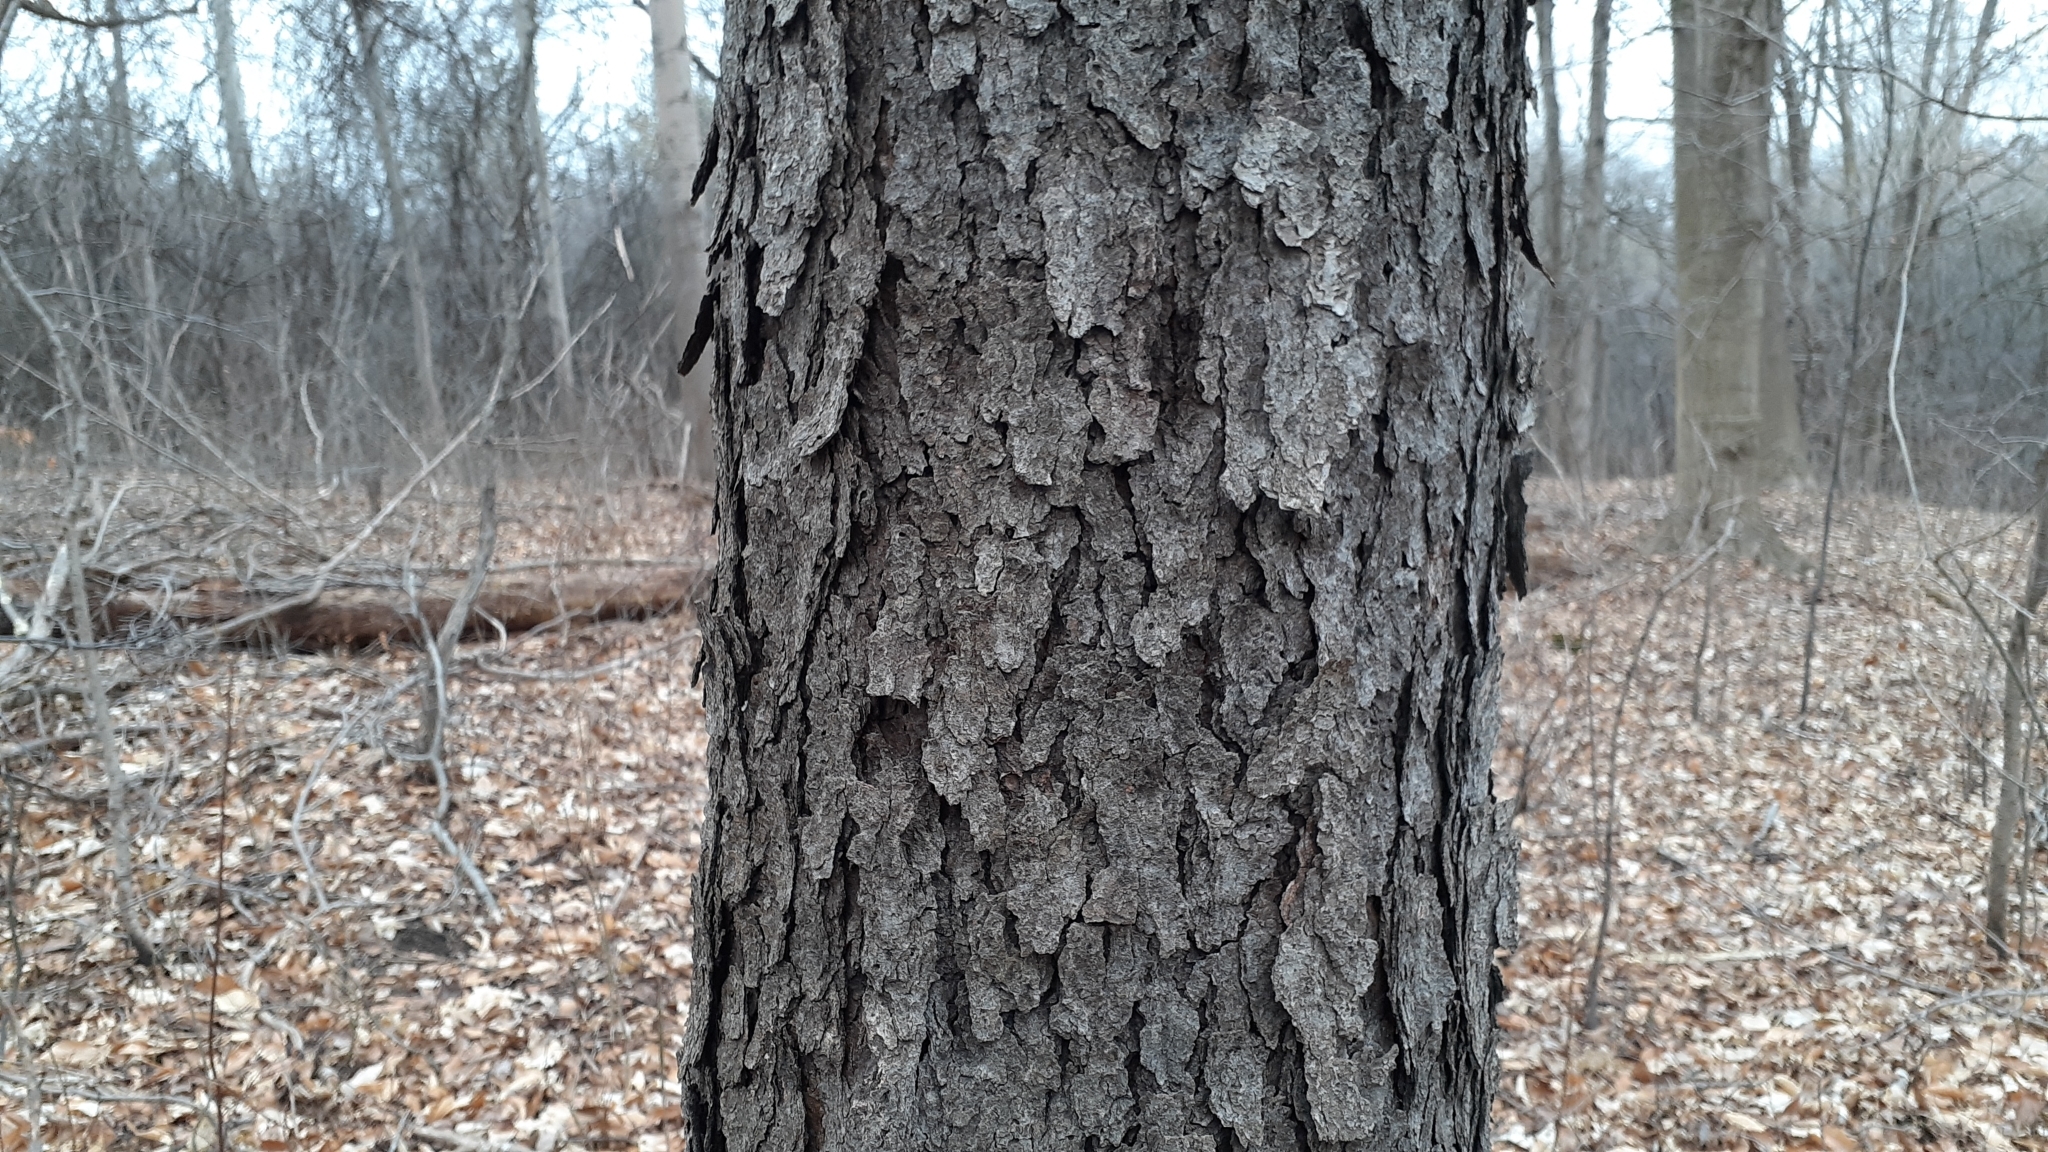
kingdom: Plantae
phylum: Tracheophyta
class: Magnoliopsida
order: Rosales
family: Rosaceae
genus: Prunus
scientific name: Prunus serotina
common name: Black cherry
